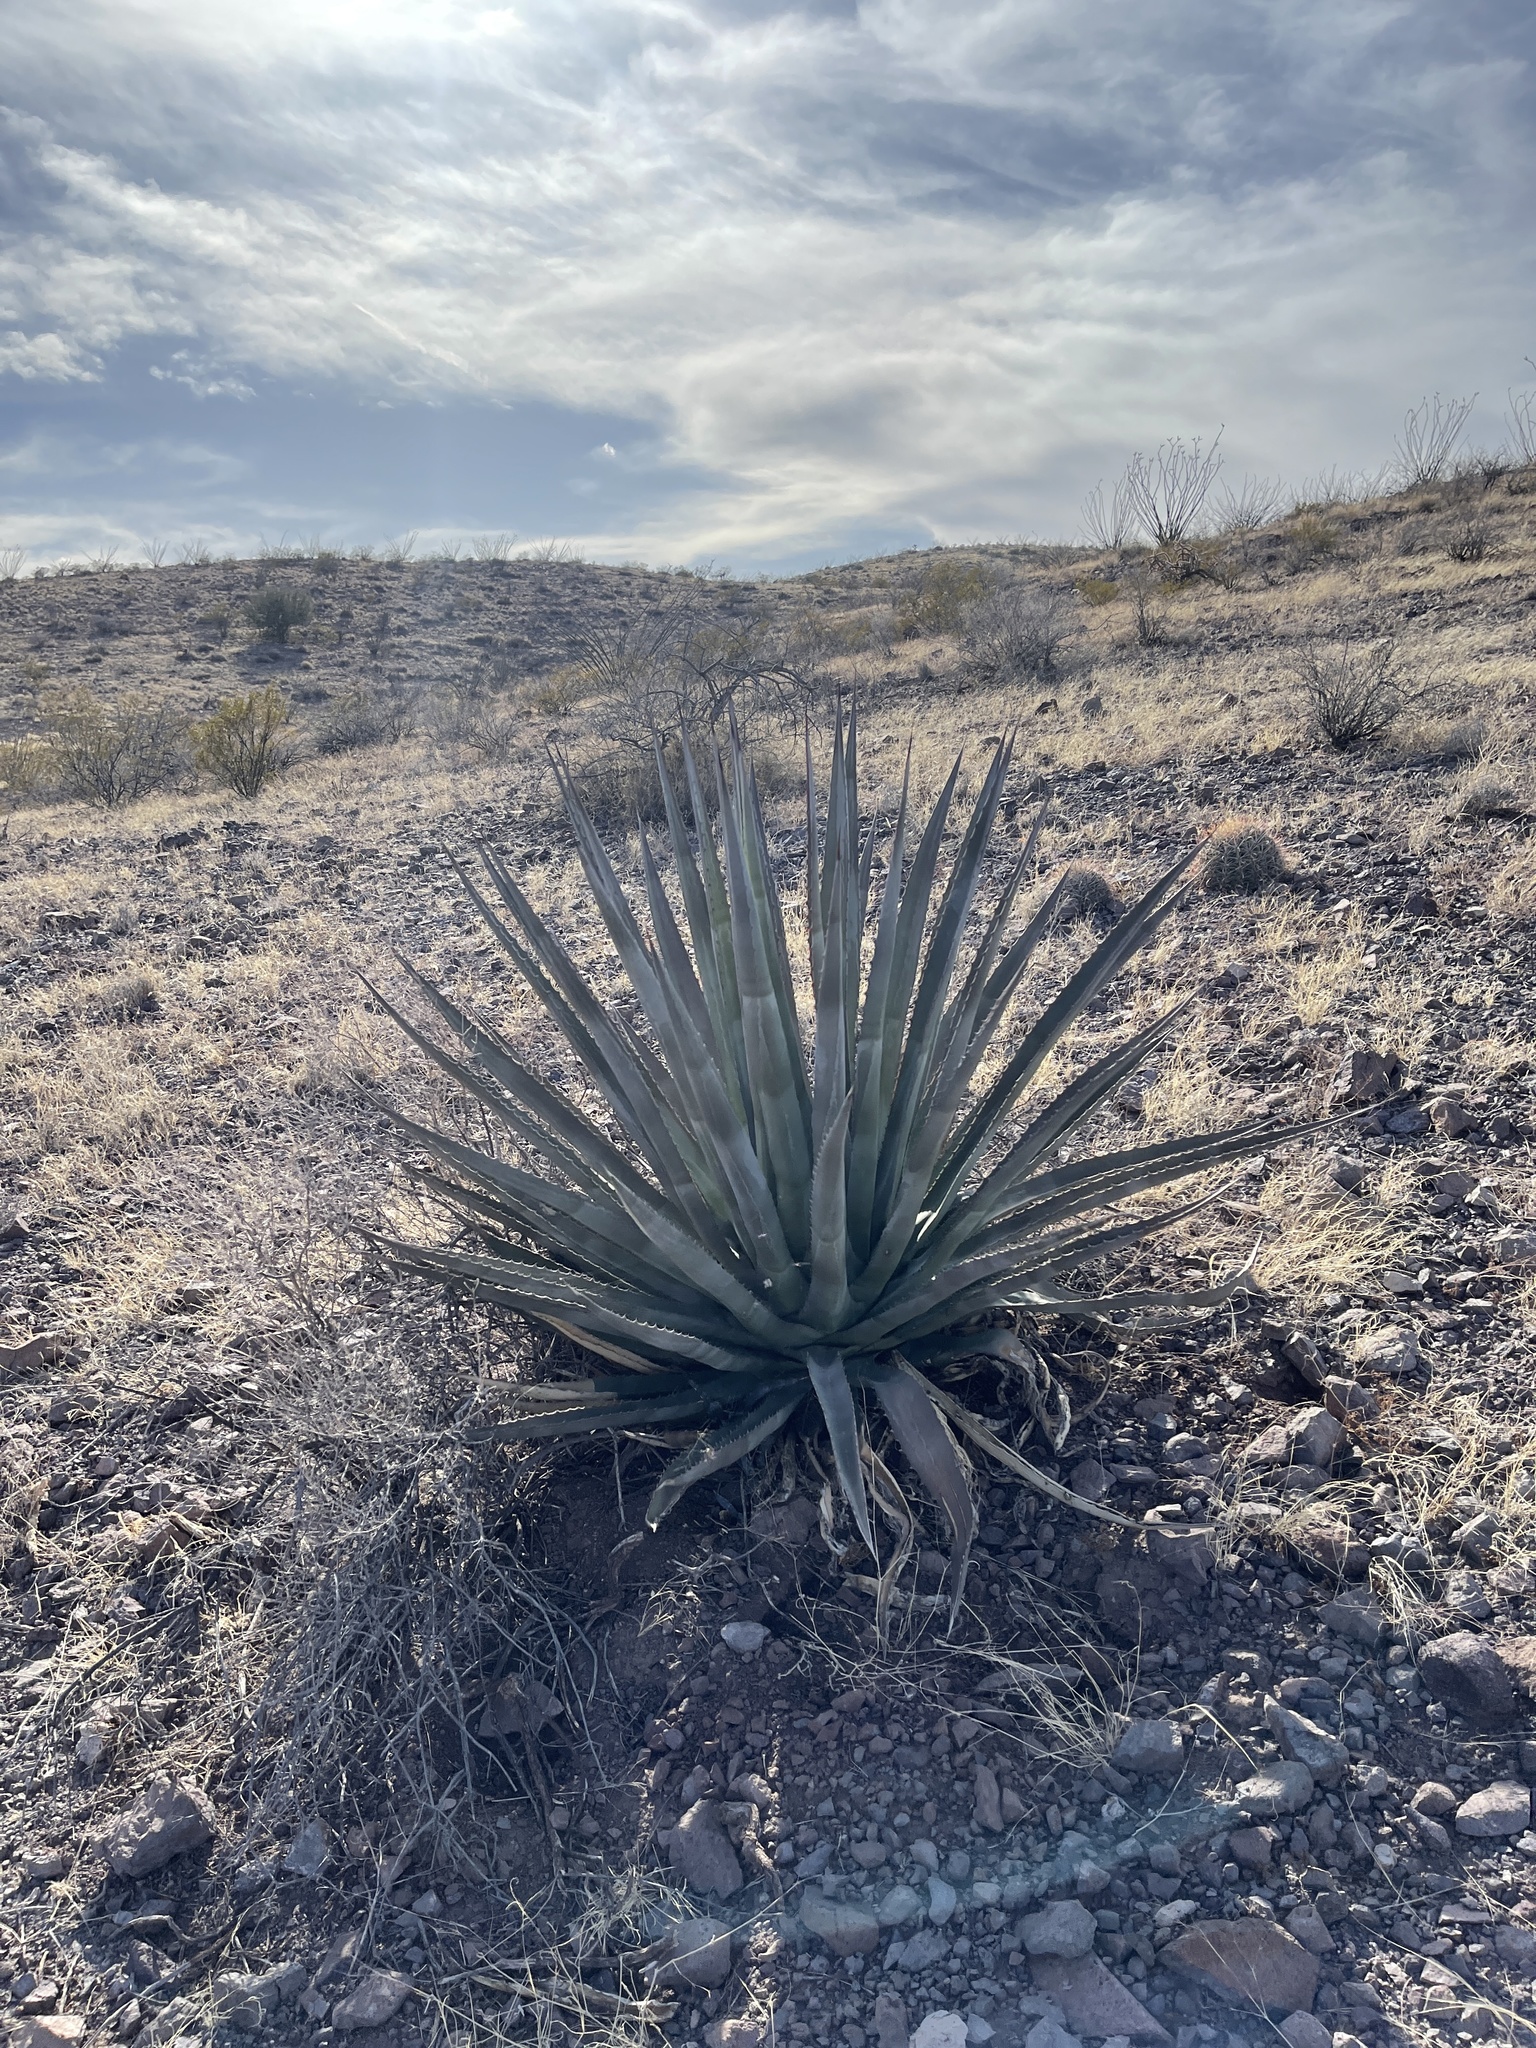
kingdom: Plantae
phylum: Tracheophyta
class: Liliopsida
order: Asparagales
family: Asparagaceae
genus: Agave
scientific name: Agave palmeri
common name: Palmer agave
